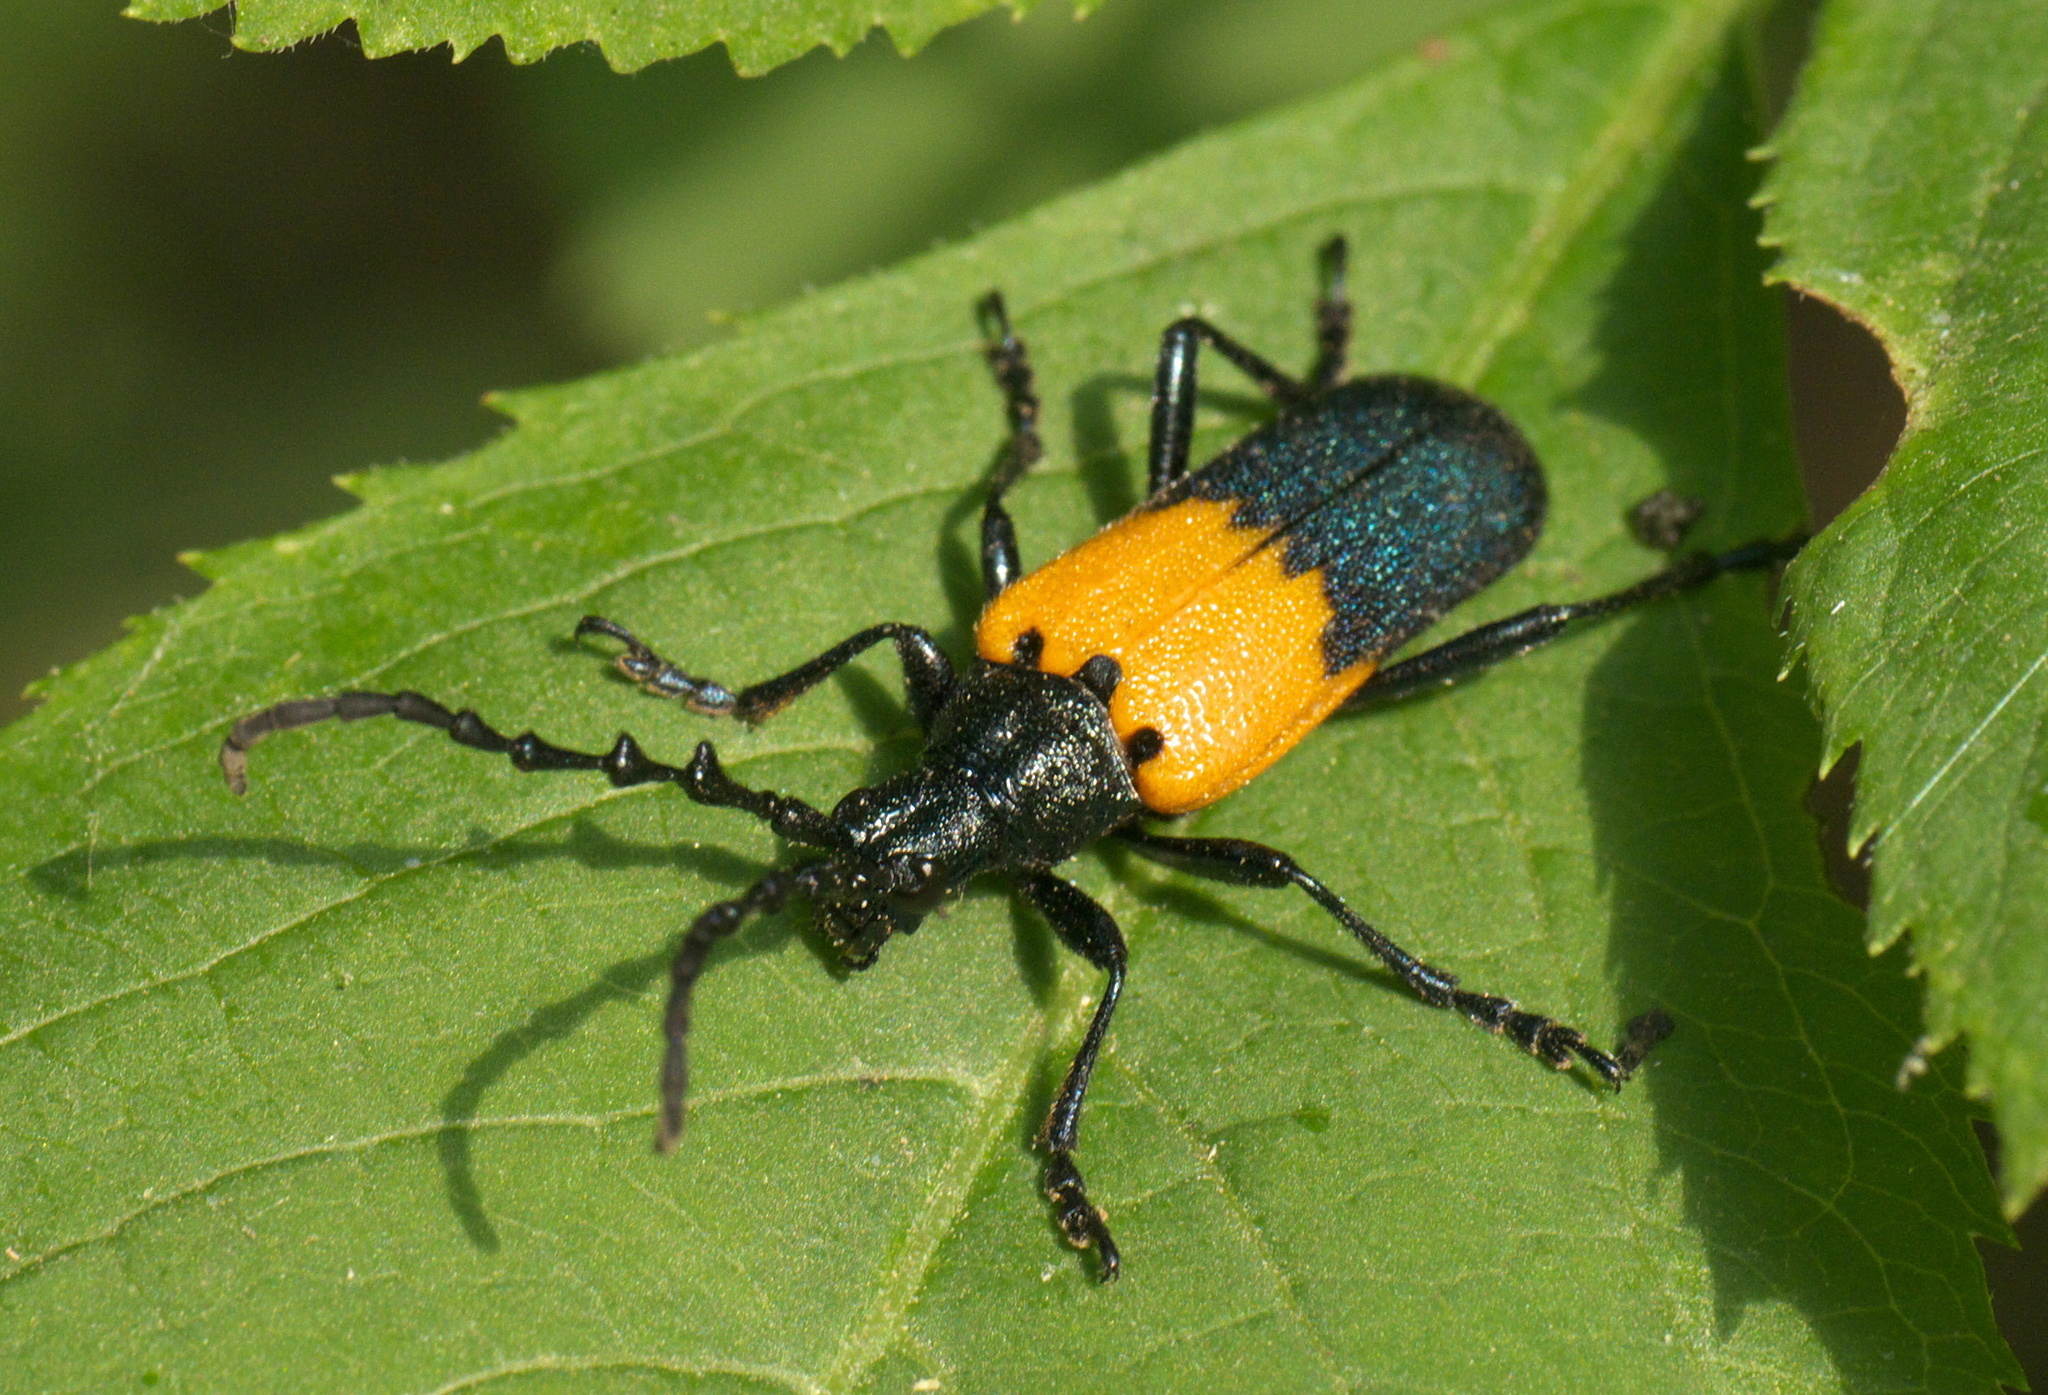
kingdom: Animalia
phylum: Arthropoda
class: Insecta
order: Coleoptera
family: Cerambycidae
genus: Desmocerus
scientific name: Desmocerus palliatus
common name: Eastern elderberry borer
